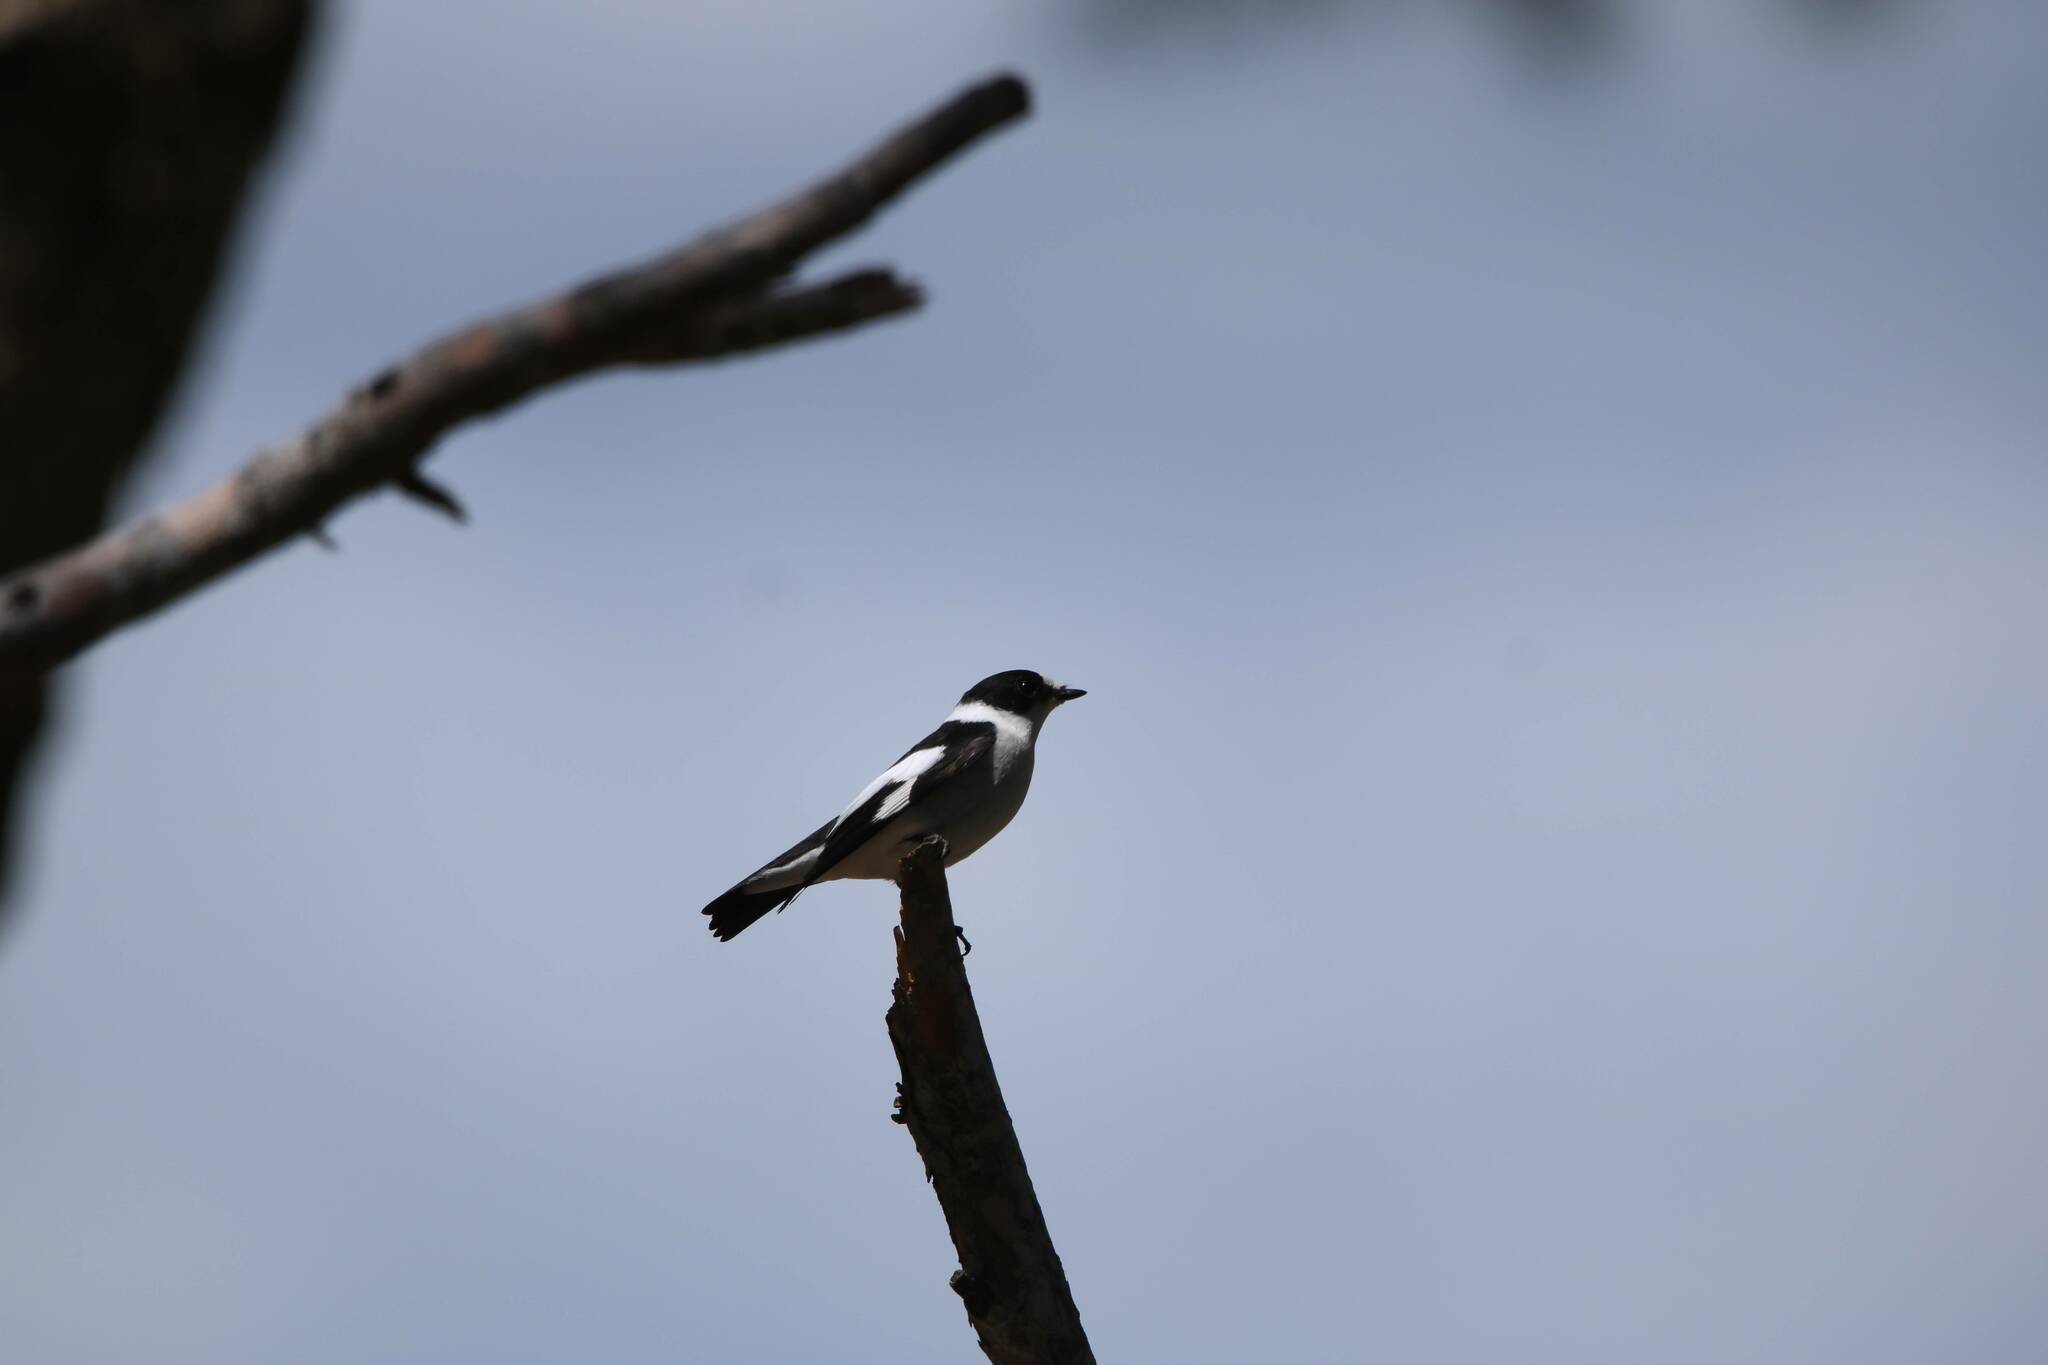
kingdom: Animalia
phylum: Chordata
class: Aves
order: Passeriformes
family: Muscicapidae
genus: Ficedula
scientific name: Ficedula albicollis
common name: Collared flycatcher
